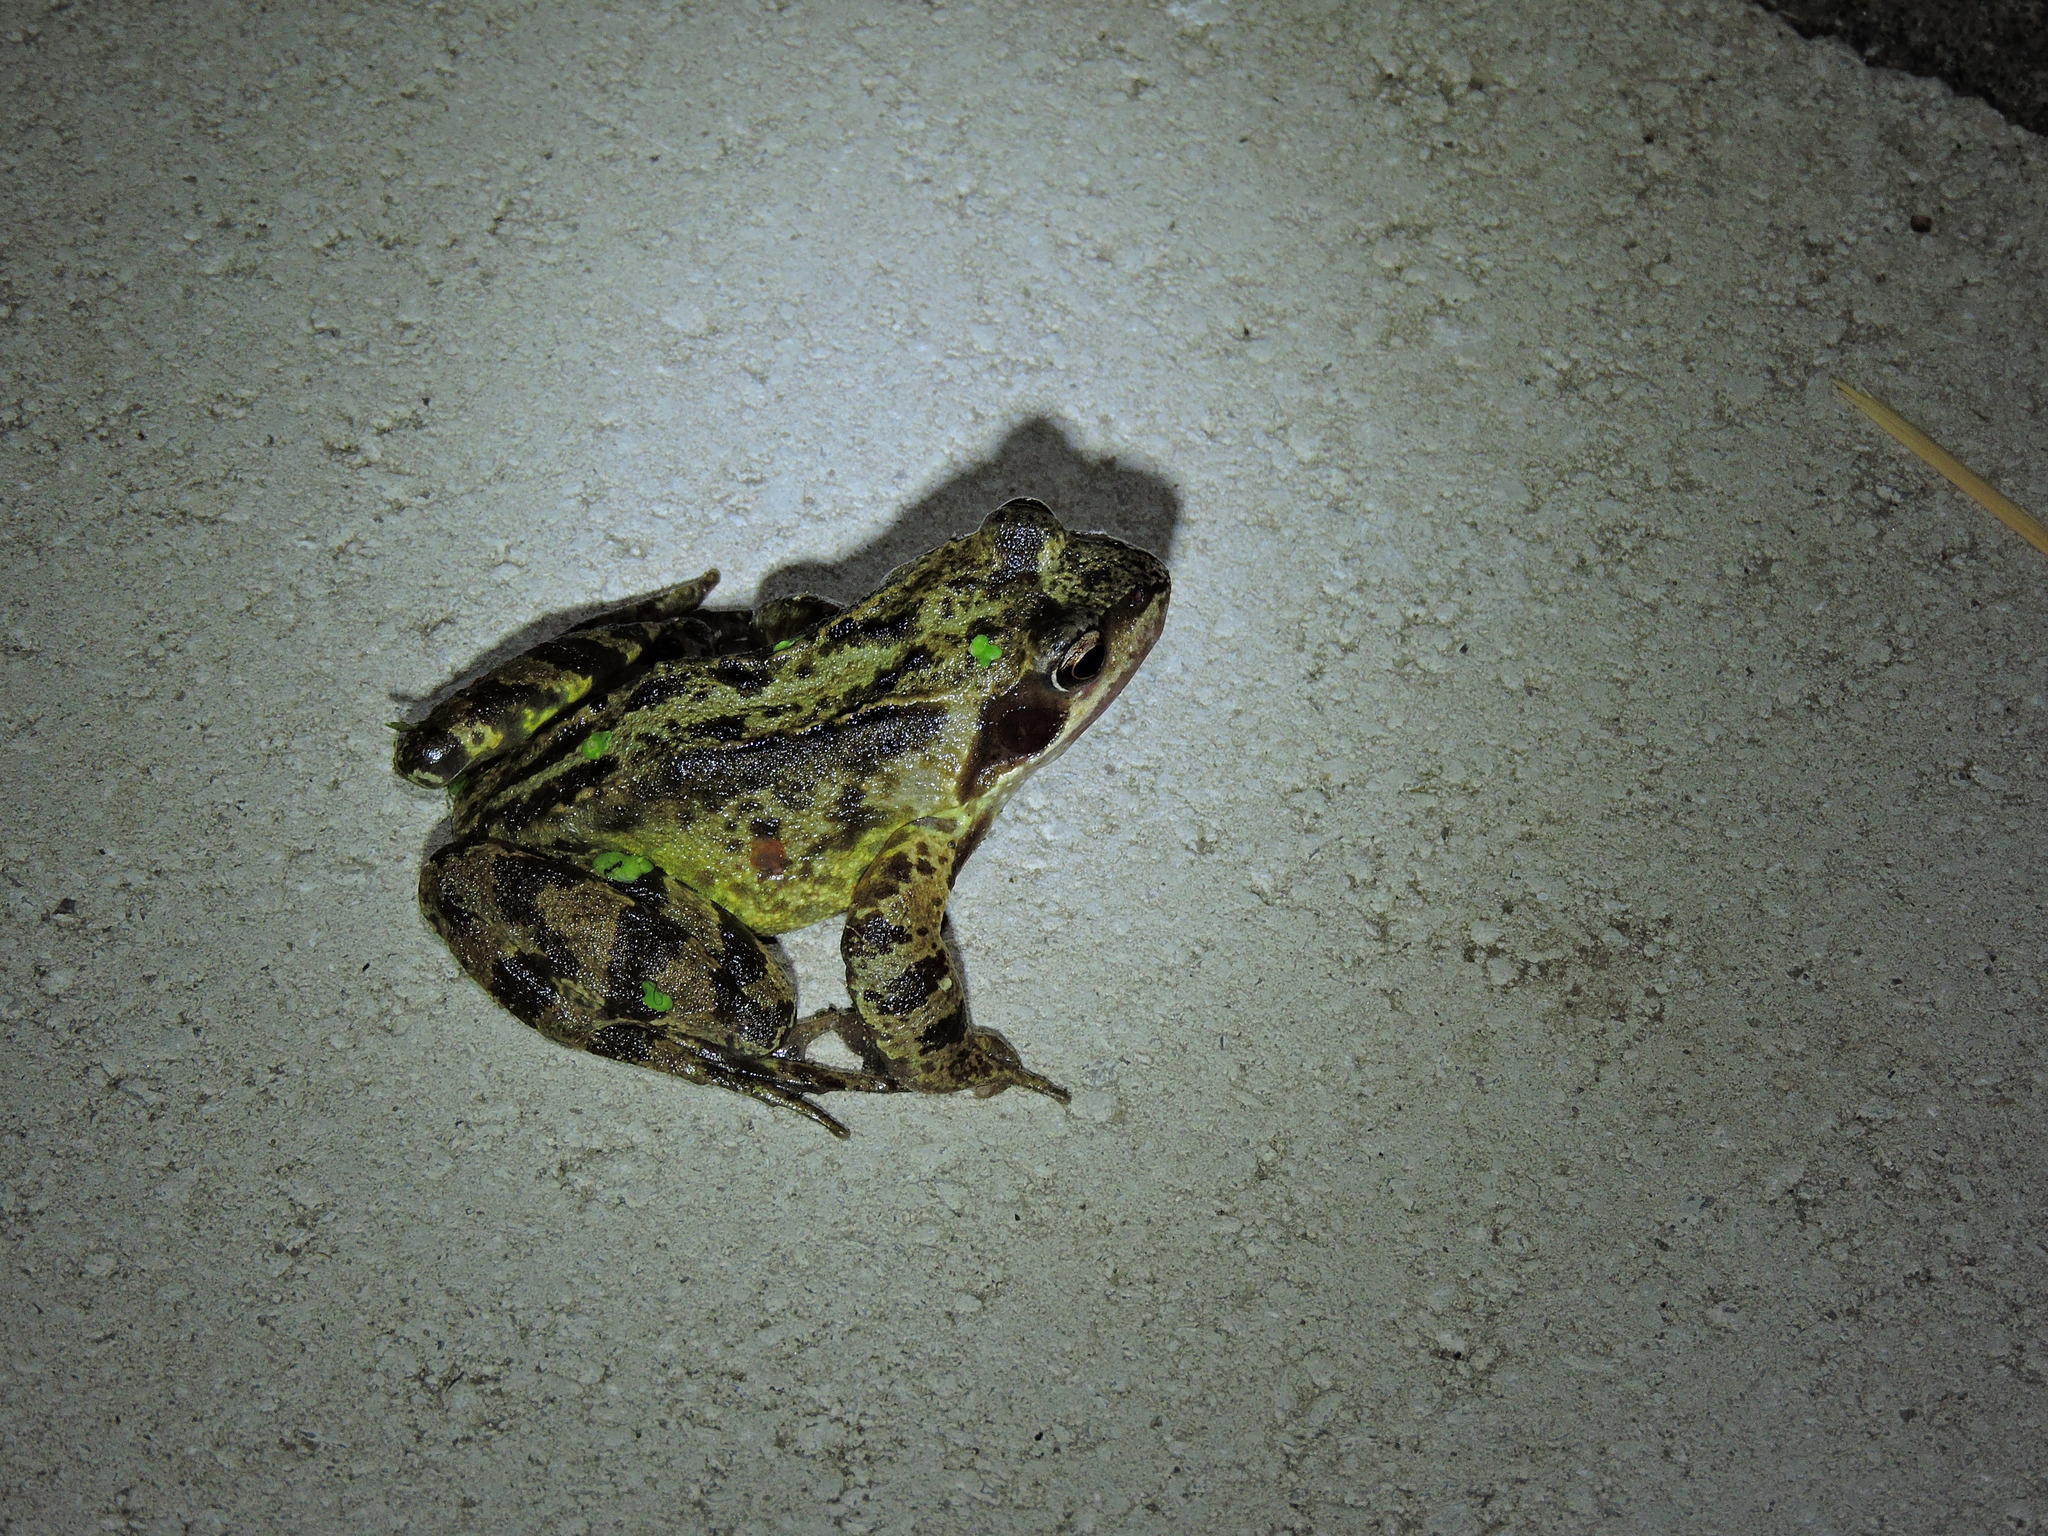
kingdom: Animalia
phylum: Chordata
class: Amphibia
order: Anura
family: Ranidae
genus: Rana
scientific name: Rana temporaria
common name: Common frog
